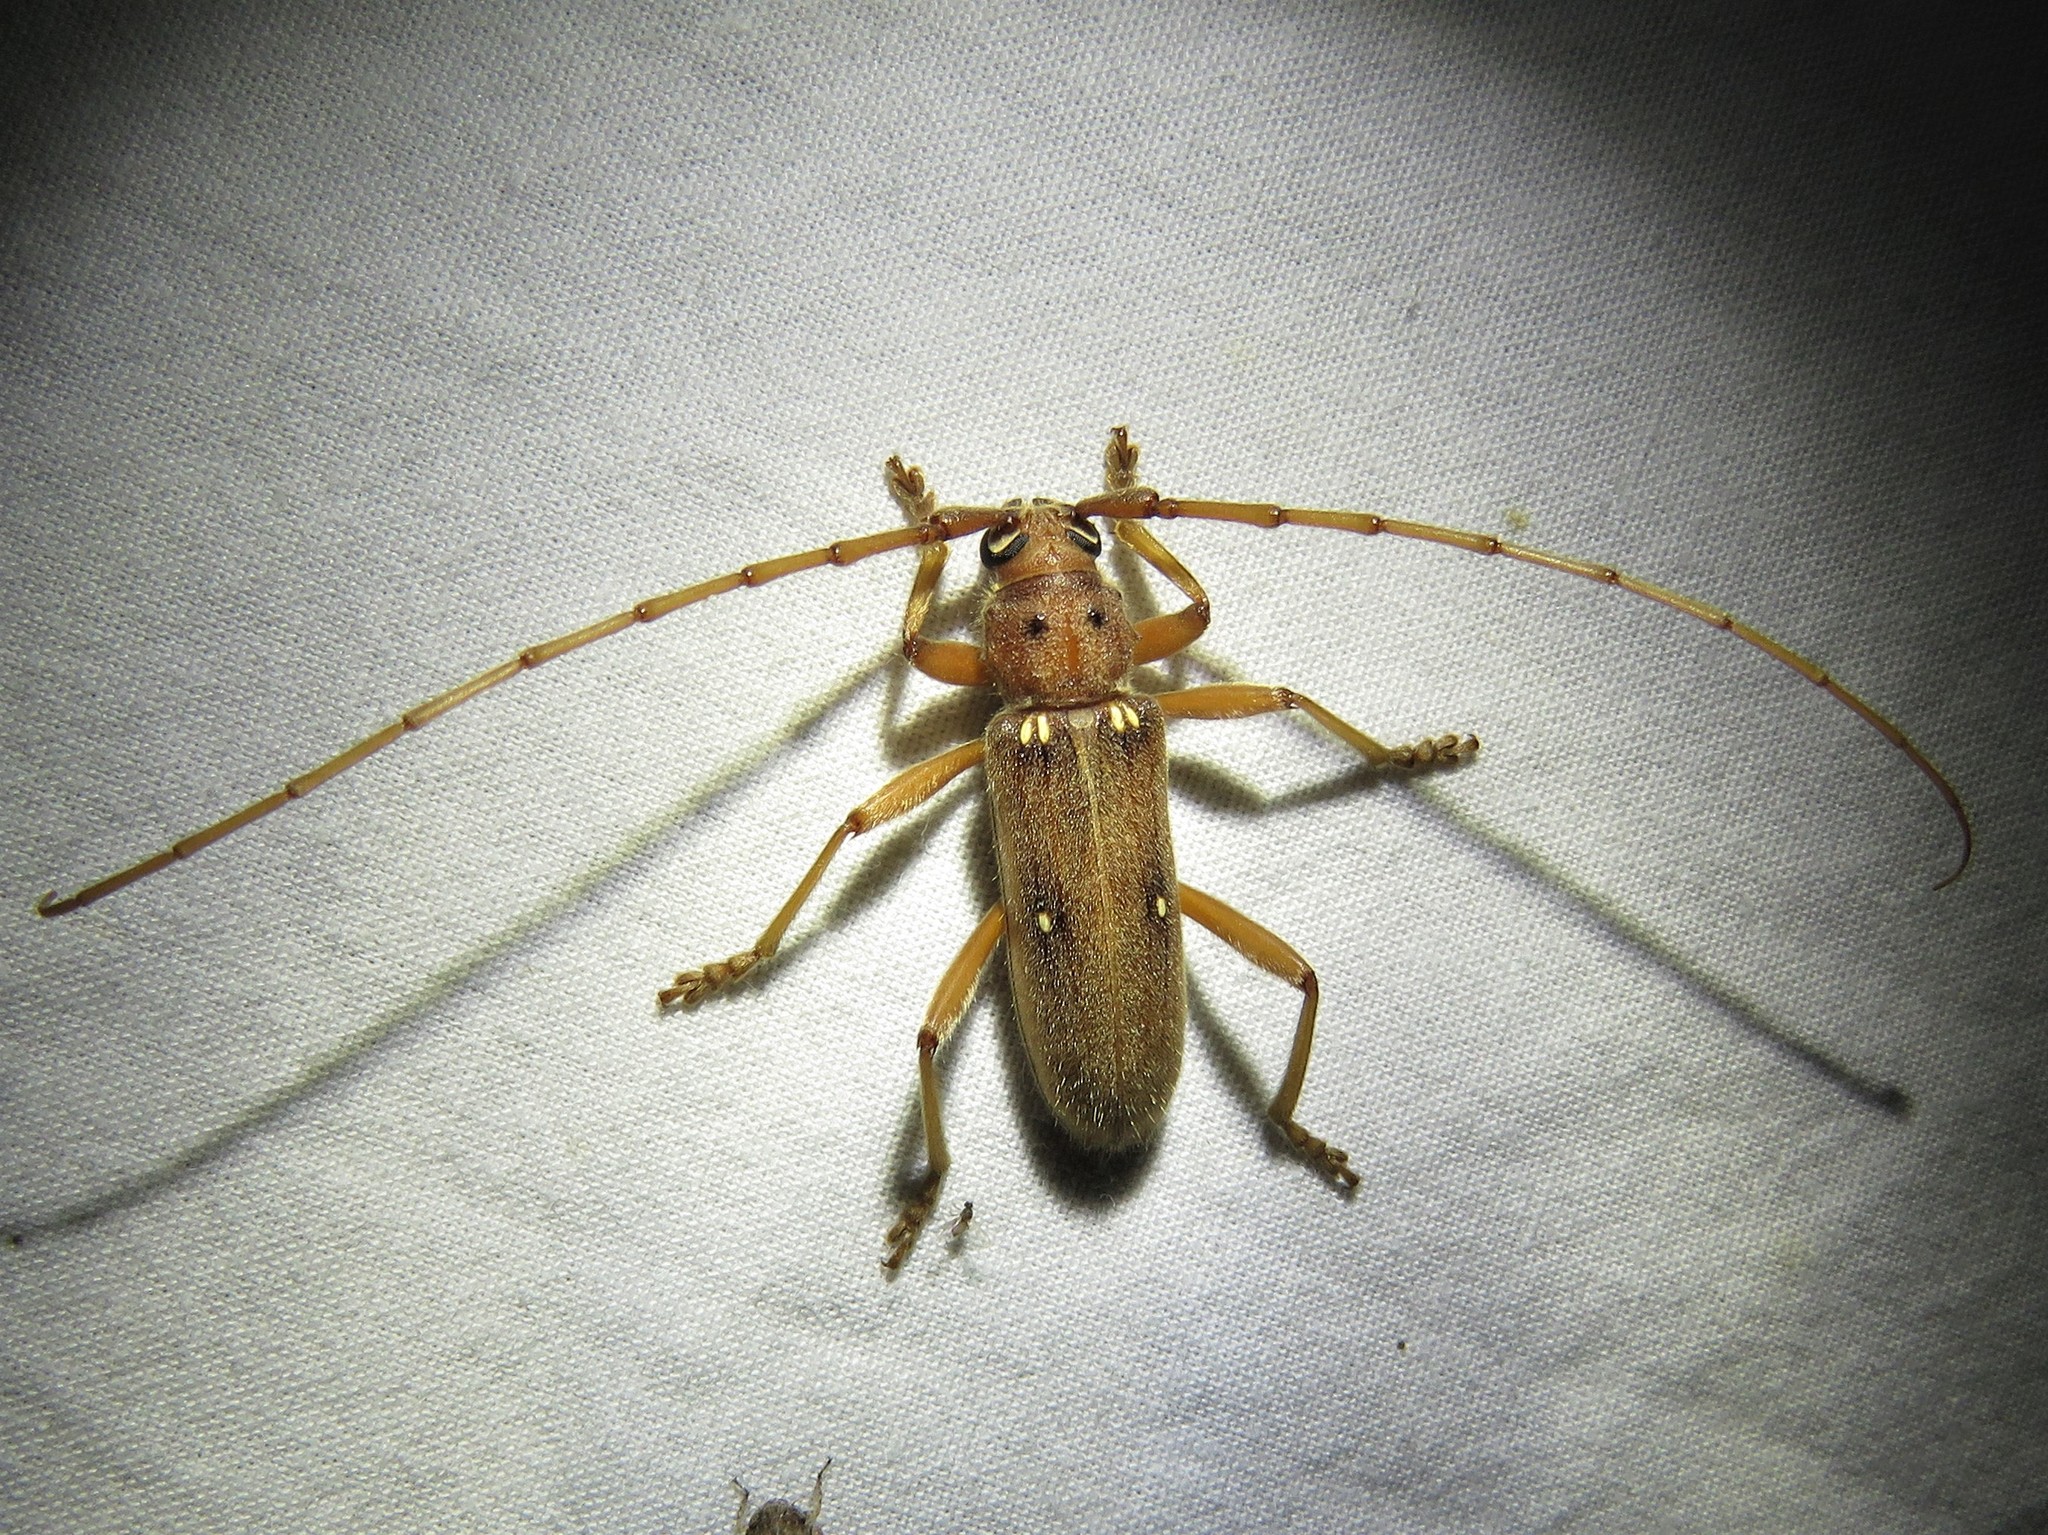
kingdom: Animalia
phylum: Arthropoda
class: Insecta
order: Coleoptera
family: Cerambycidae
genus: Eburia
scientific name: Eburia haldemani
